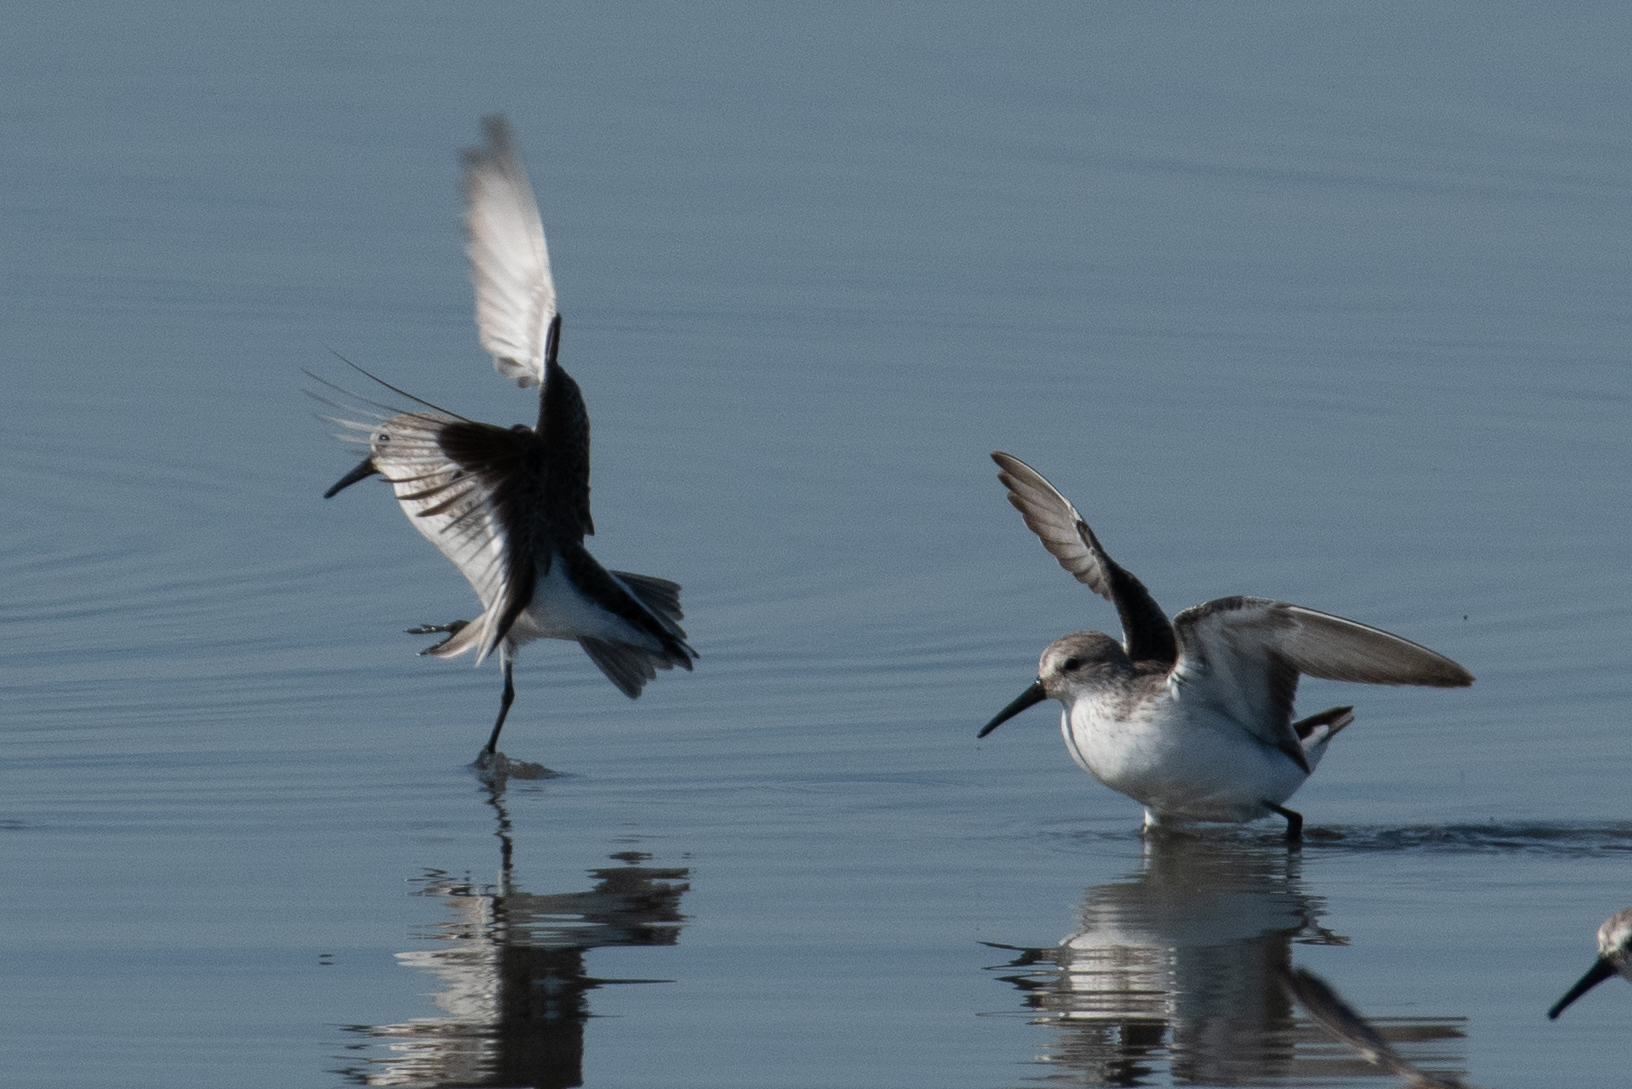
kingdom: Animalia
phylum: Chordata
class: Aves
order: Charadriiformes
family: Scolopacidae
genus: Calidris
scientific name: Calidris mauri
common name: Western sandpiper
